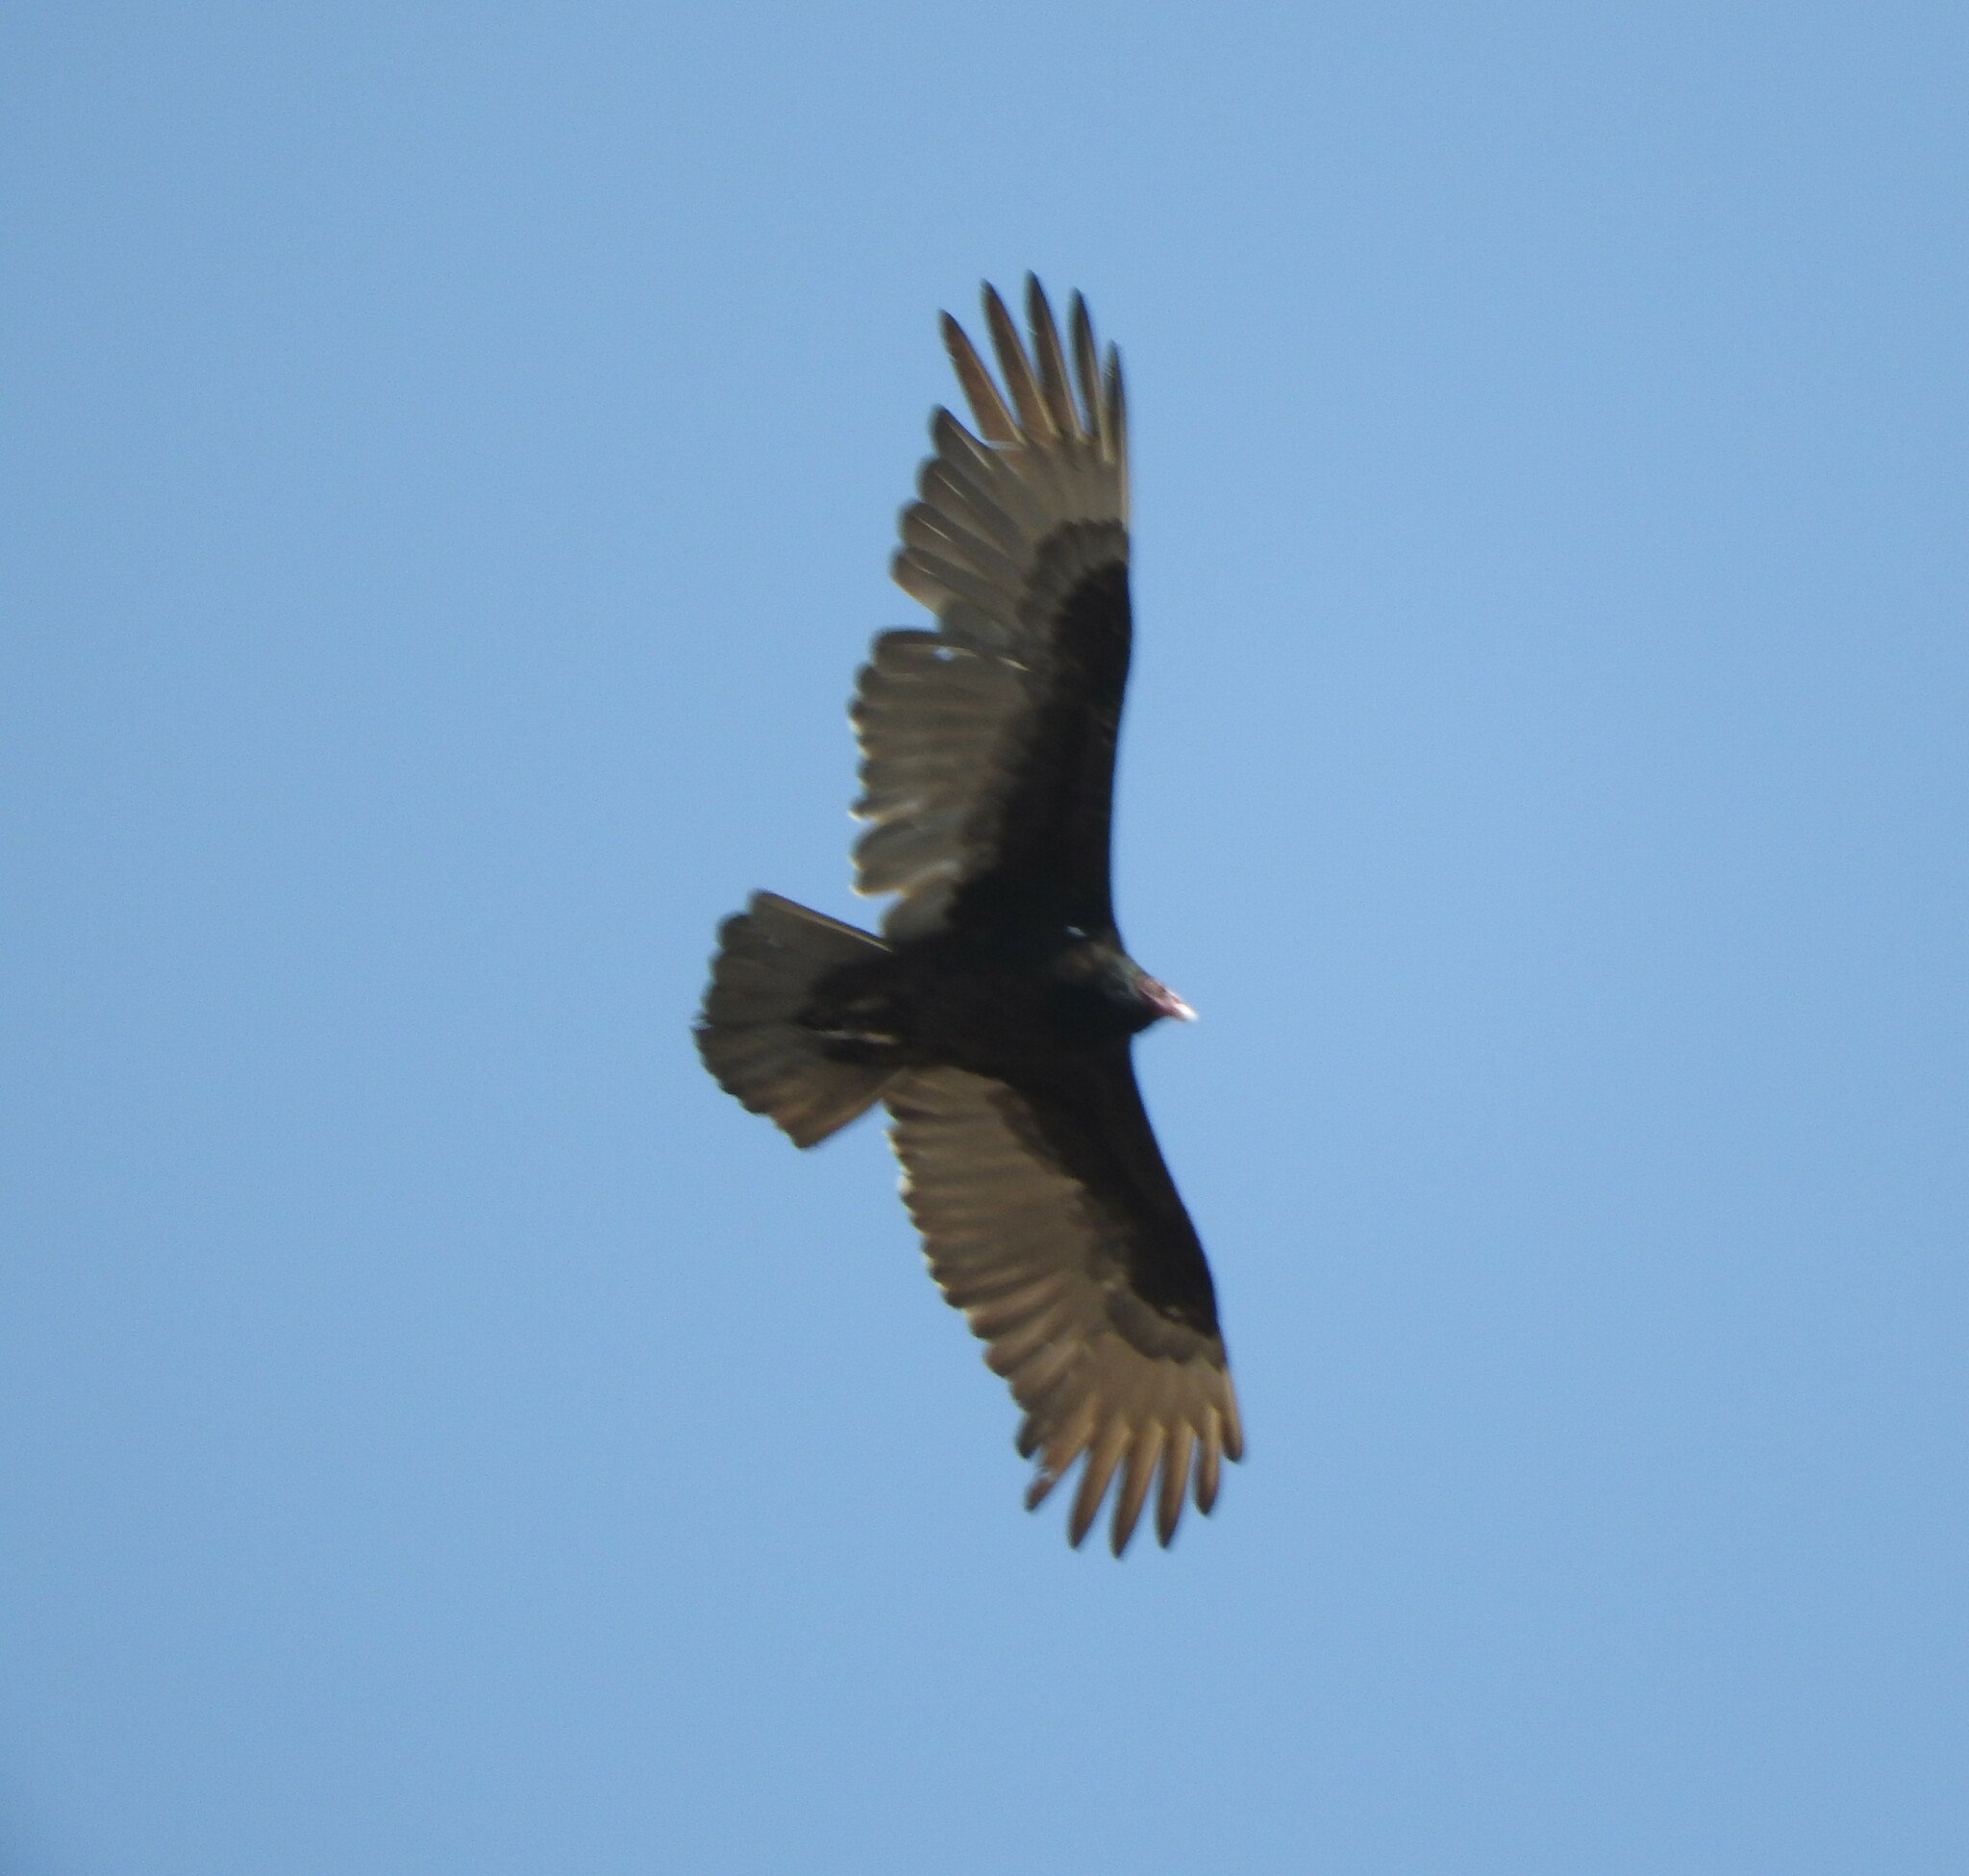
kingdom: Animalia
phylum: Chordata
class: Aves
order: Accipitriformes
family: Cathartidae
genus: Cathartes
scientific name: Cathartes aura
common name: Turkey vulture
